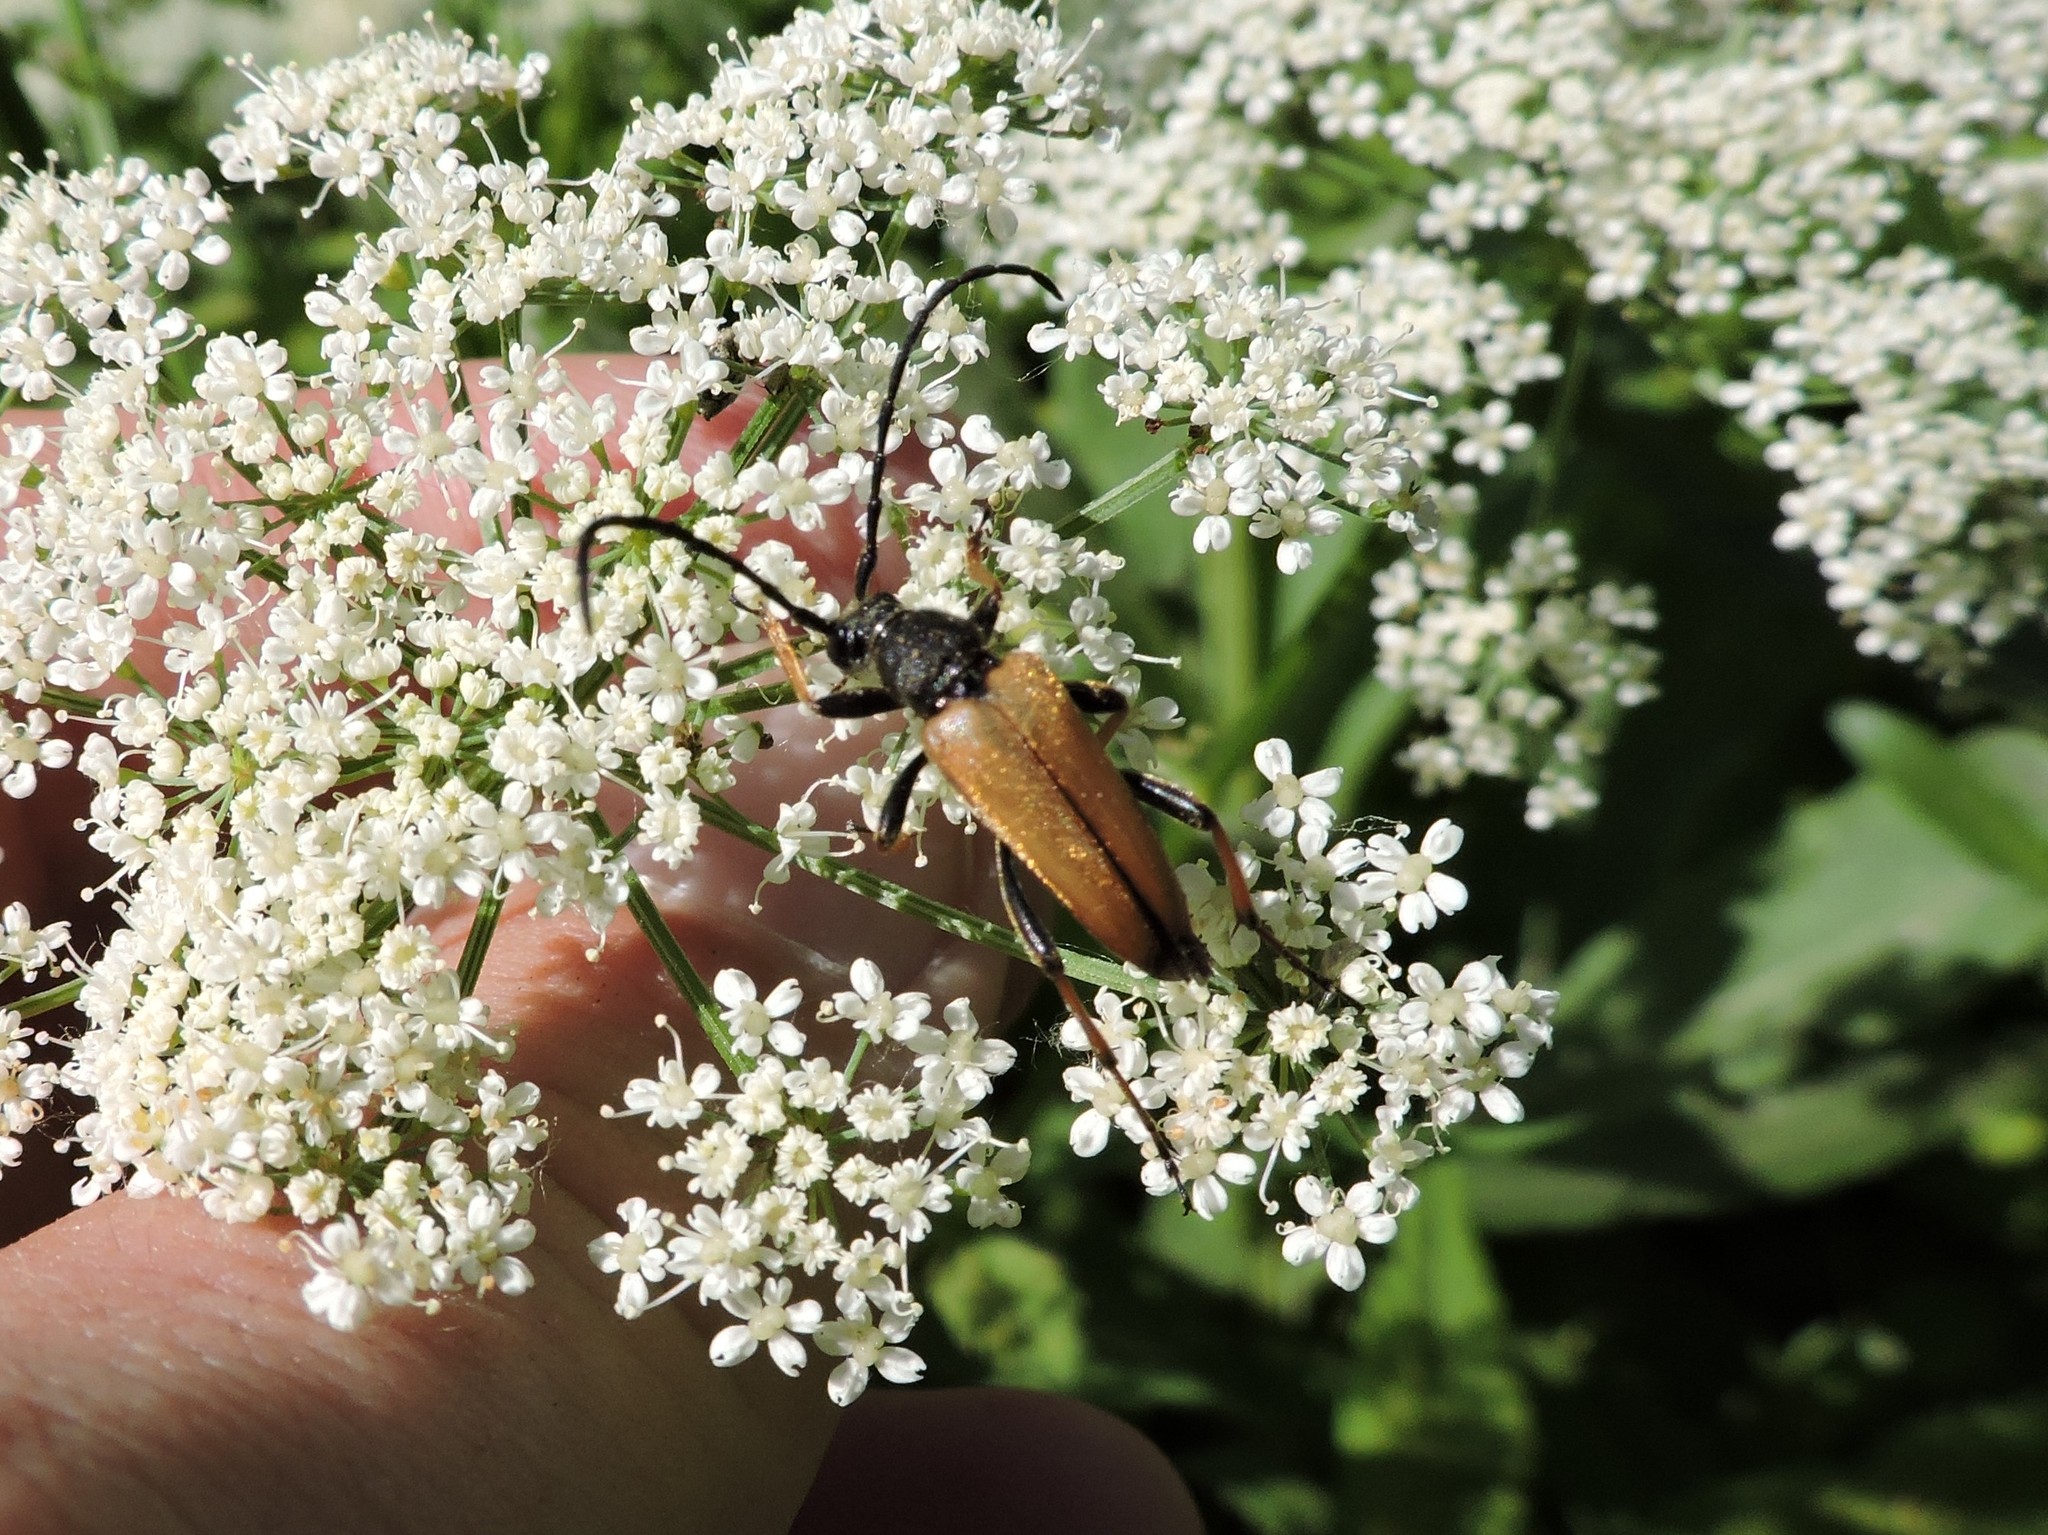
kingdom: Animalia
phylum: Arthropoda
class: Insecta
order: Coleoptera
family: Cerambycidae
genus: Stictoleptura
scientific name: Stictoleptura rubra
